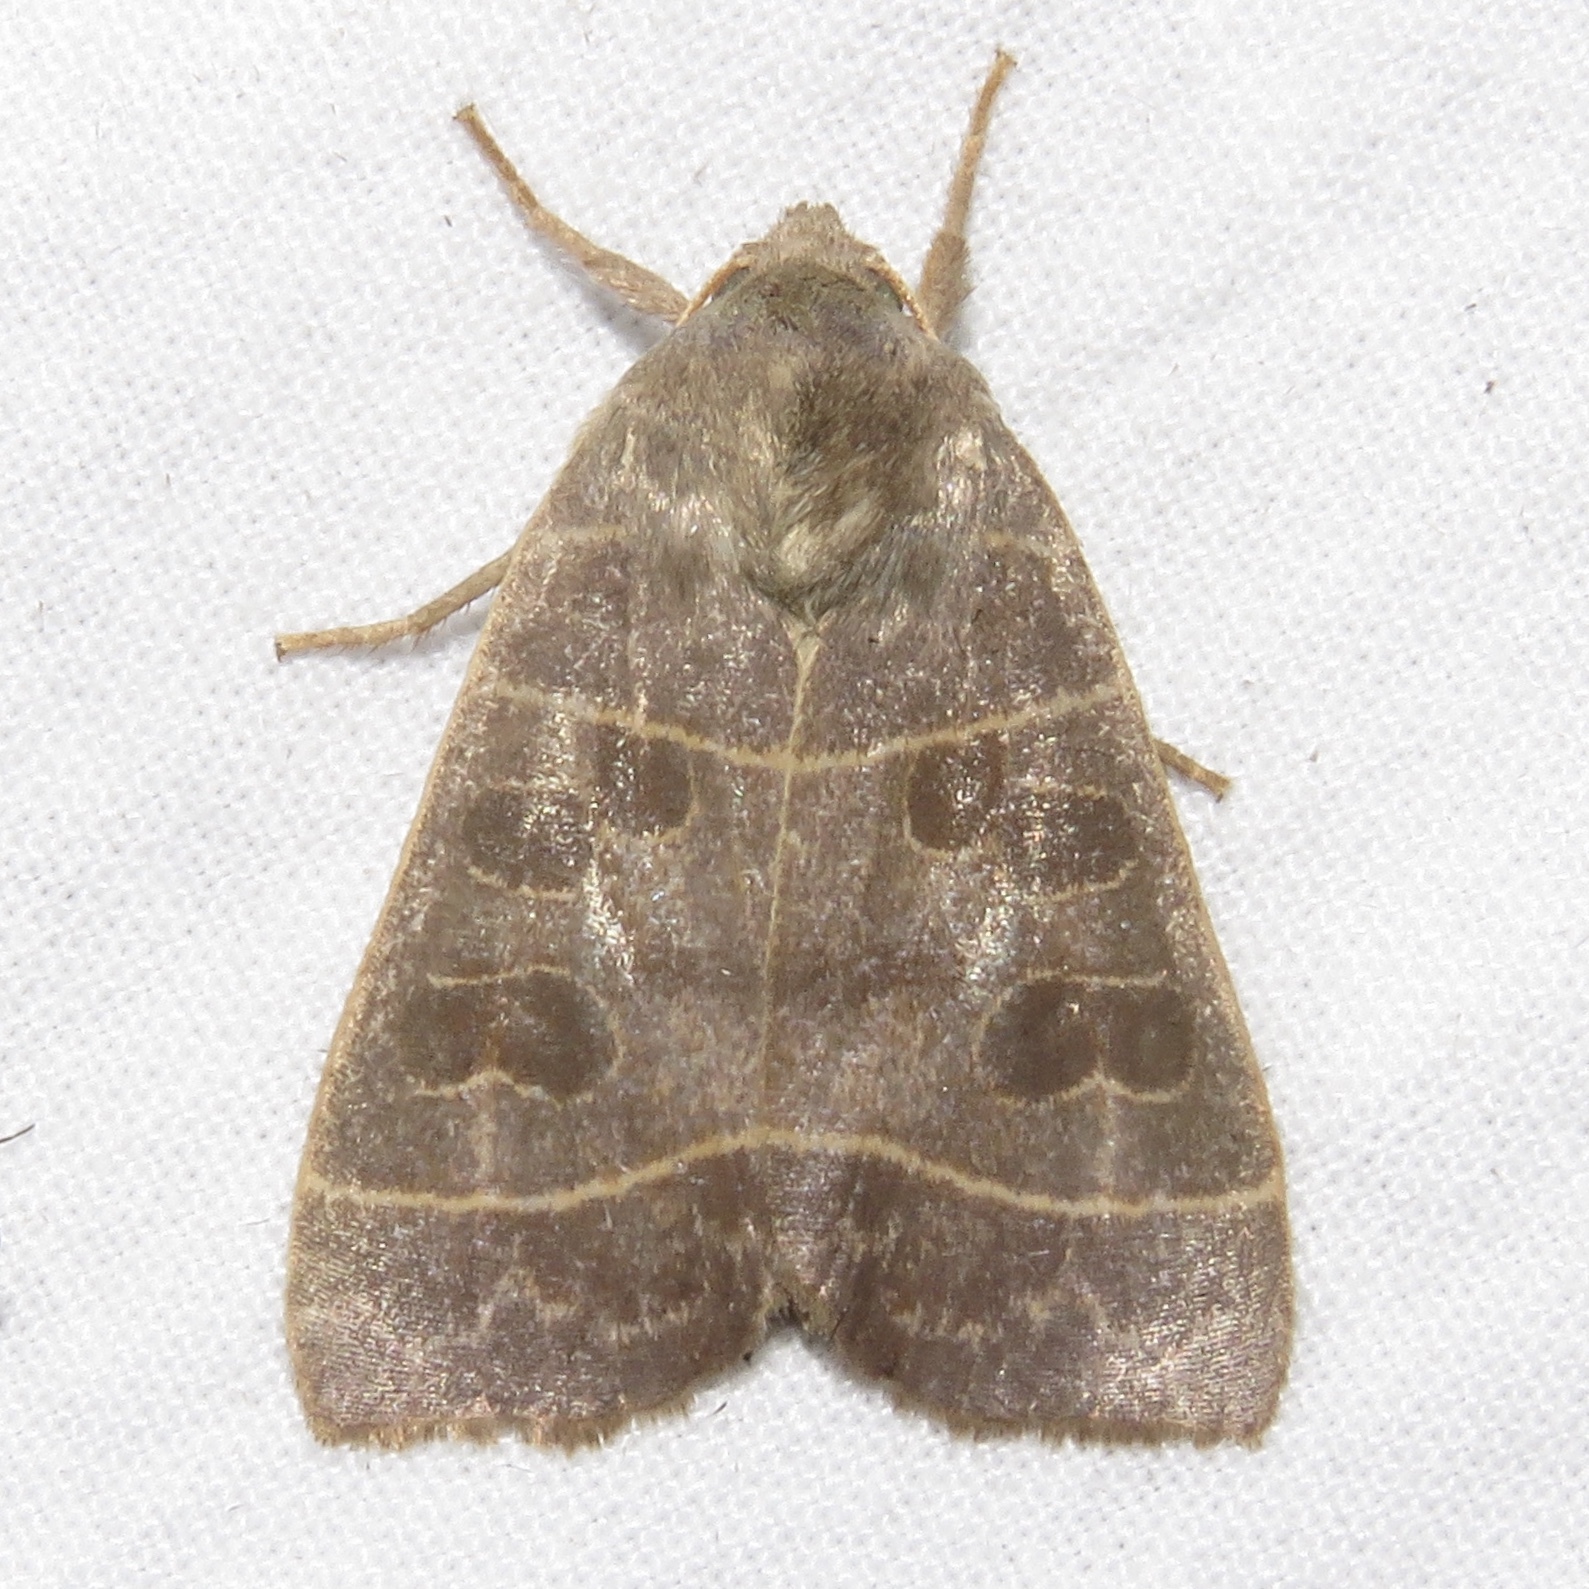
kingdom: Animalia
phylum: Arthropoda
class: Insecta
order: Lepidoptera
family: Noctuidae
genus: Ipimorpha
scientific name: Ipimorpha pleonectusa
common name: Even-lined sallow
